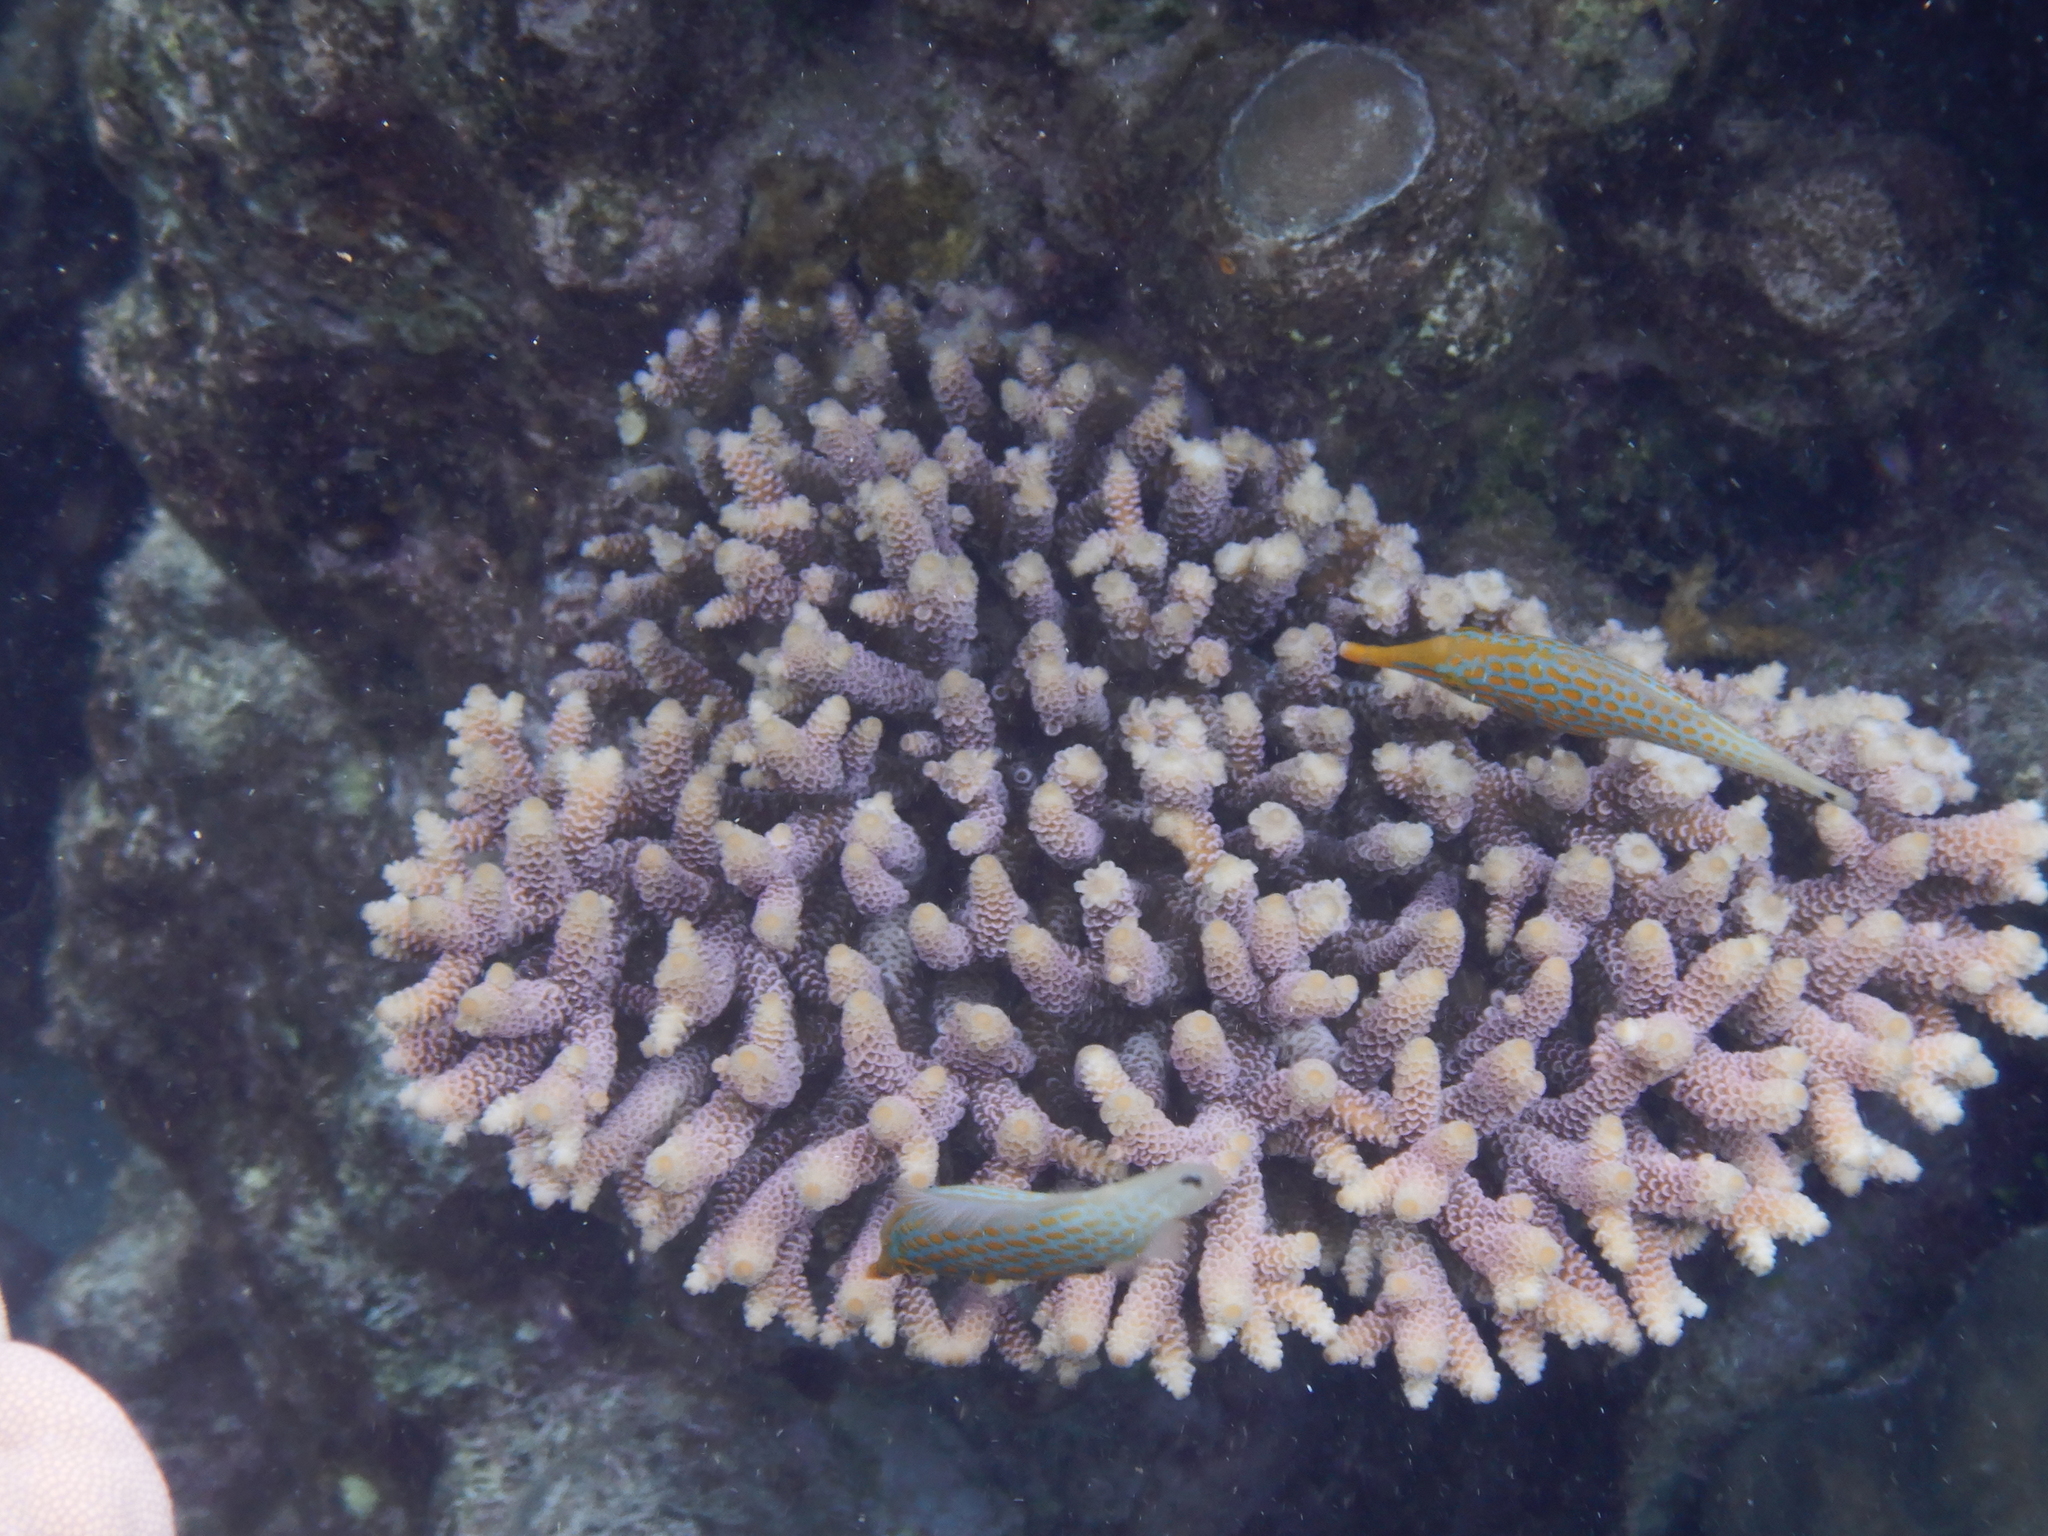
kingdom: Animalia
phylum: Chordata
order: Tetraodontiformes
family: Monacanthidae
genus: Oxymonacanthus
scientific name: Oxymonacanthus longirostris
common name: Beaked leatherjacket
